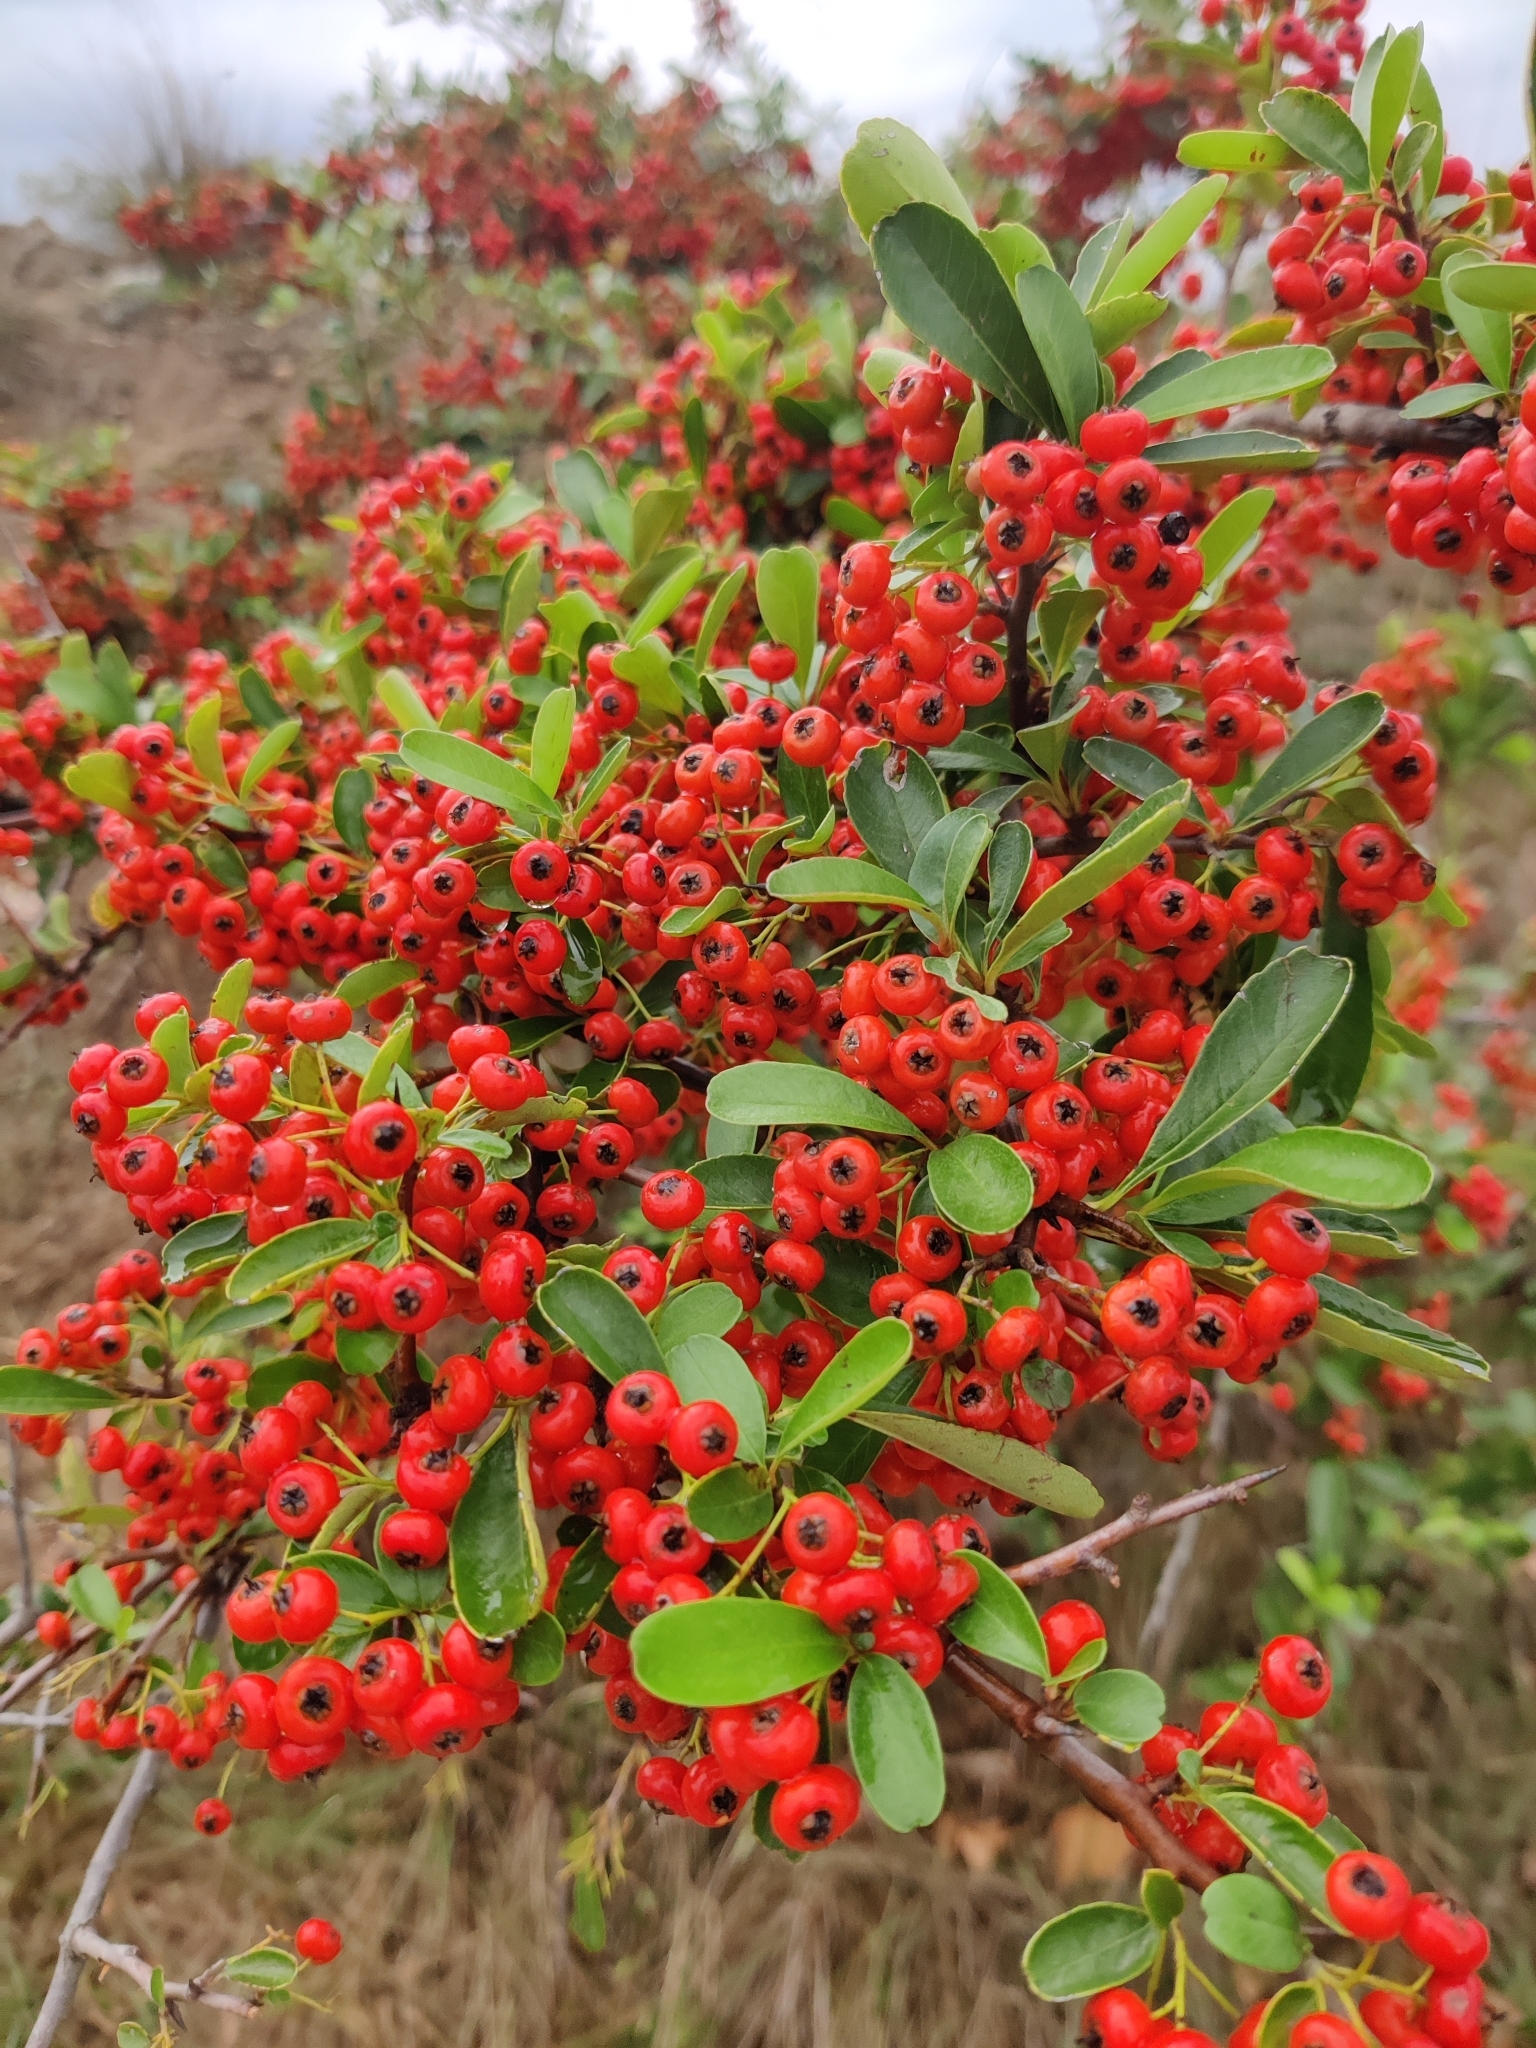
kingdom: Plantae
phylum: Tracheophyta
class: Magnoliopsida
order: Rosales
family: Rosaceae
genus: Pyracantha
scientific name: Pyracantha coccinea
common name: Firethorn
